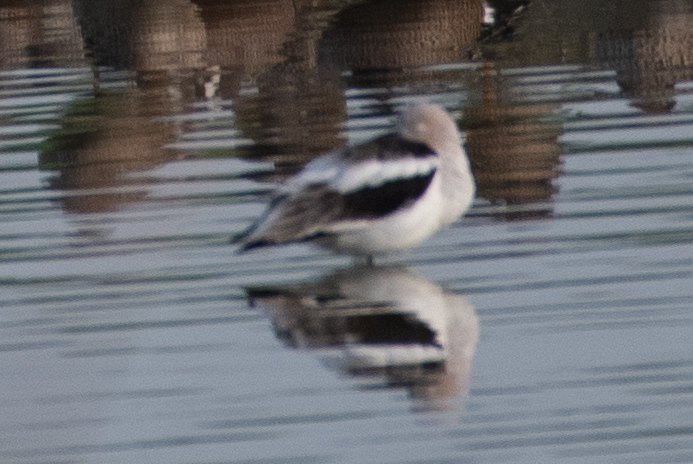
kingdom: Animalia
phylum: Chordata
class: Aves
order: Charadriiformes
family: Recurvirostridae
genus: Recurvirostra
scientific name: Recurvirostra americana
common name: American avocet
